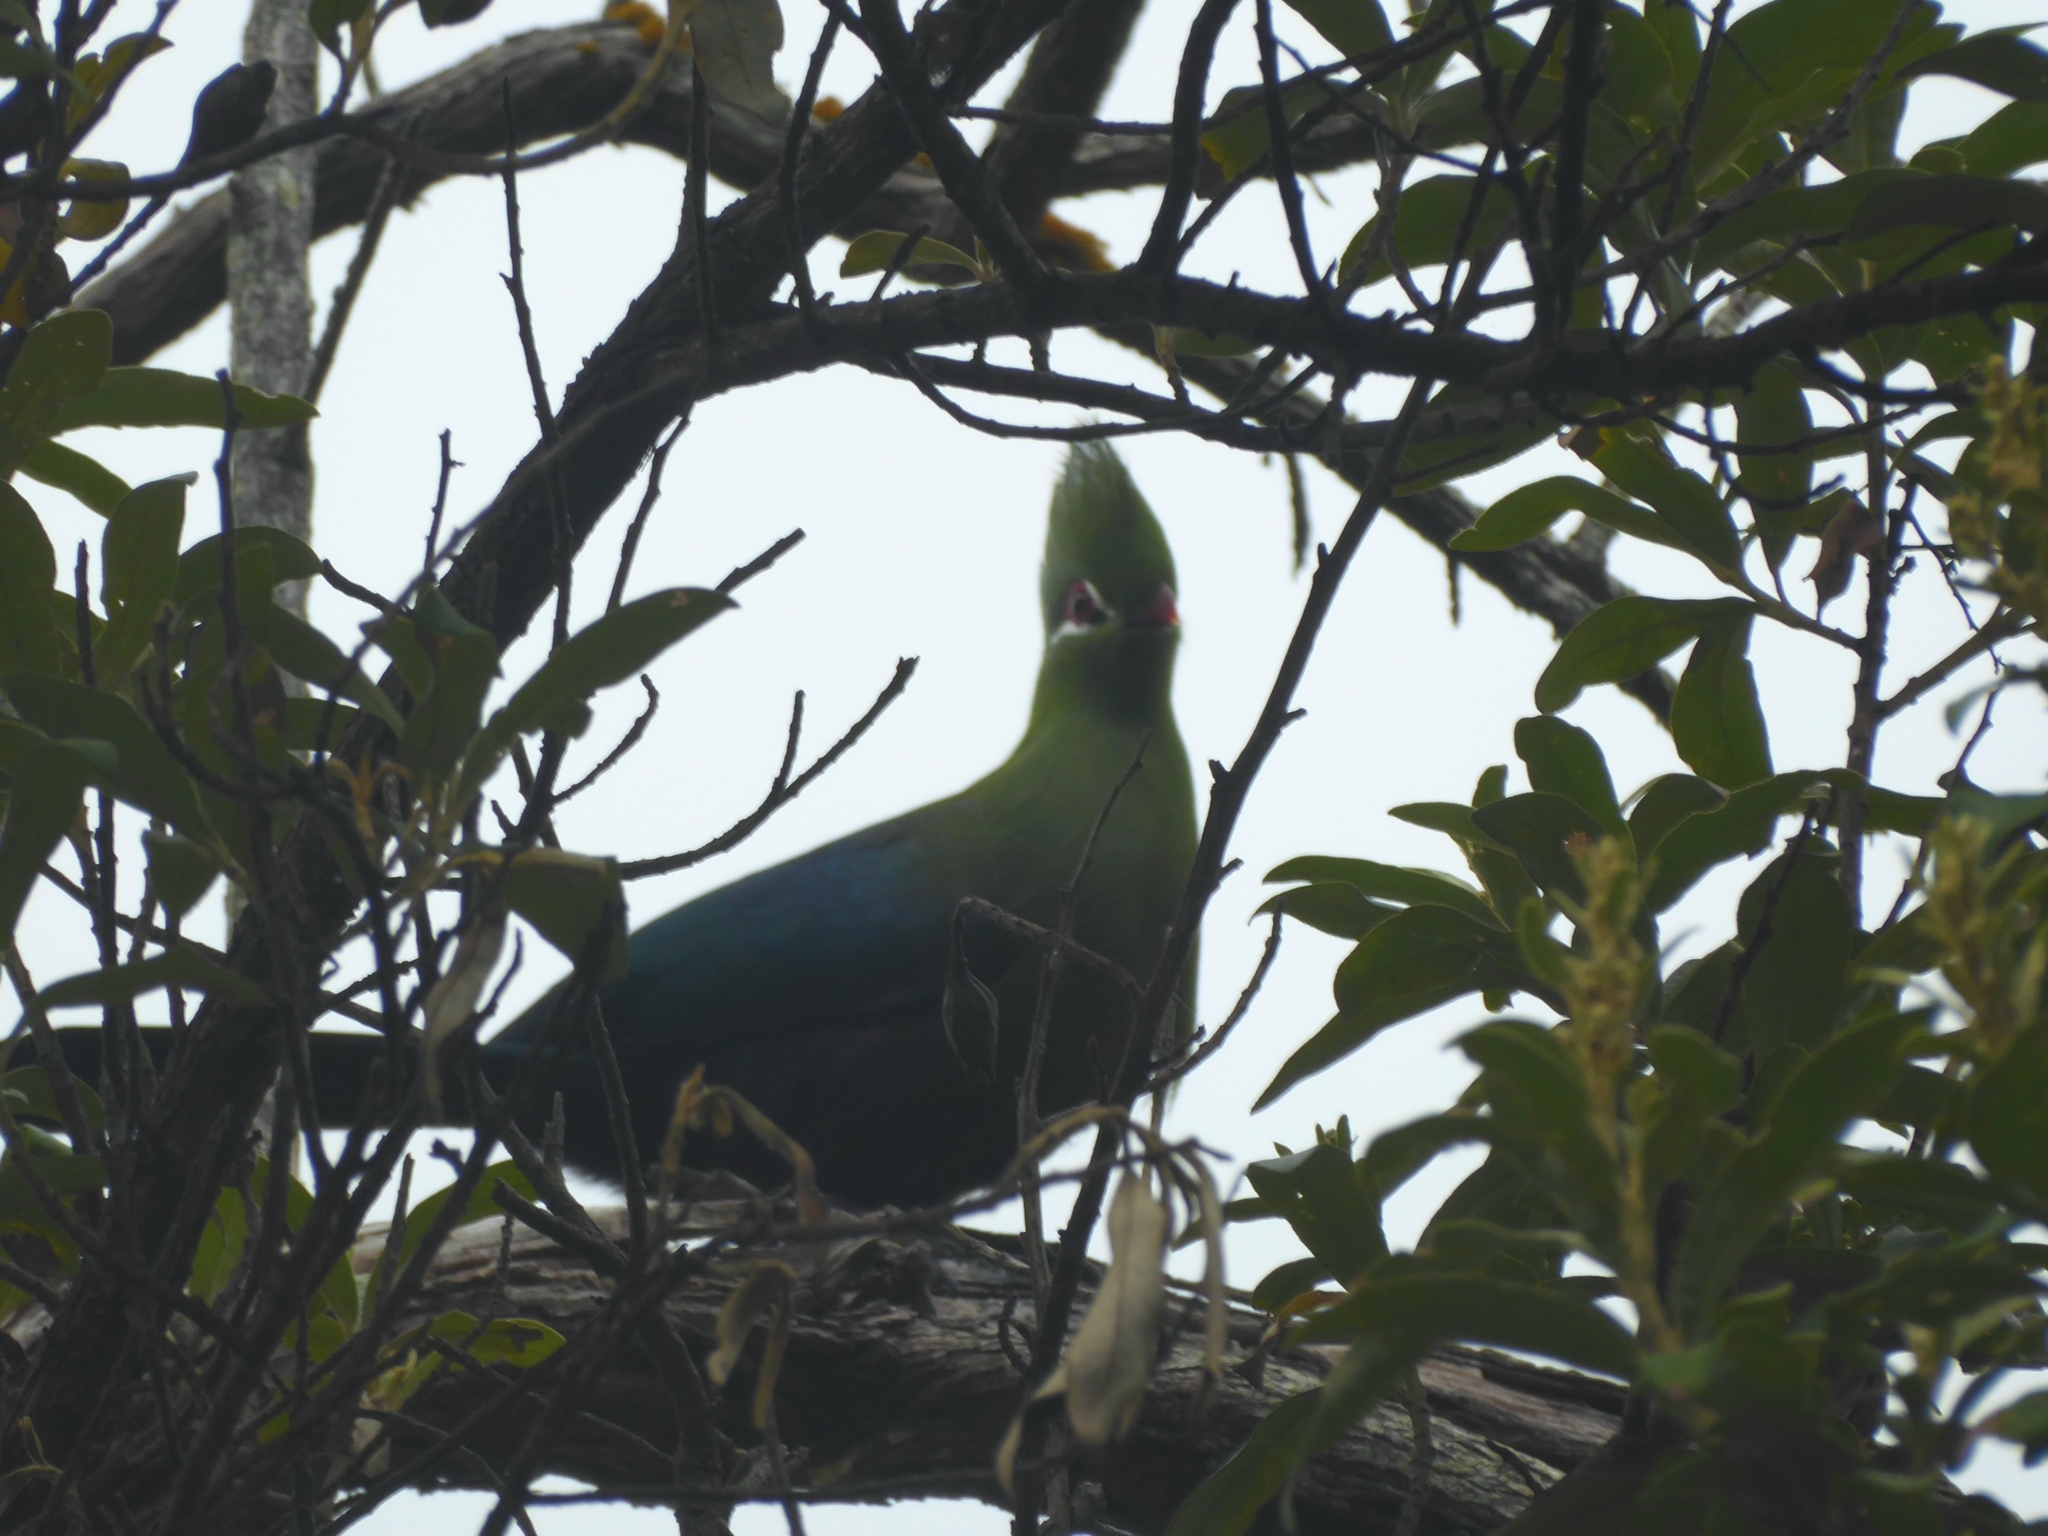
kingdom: Animalia
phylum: Chordata
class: Aves
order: Musophagiformes
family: Musophagidae
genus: Tauraco
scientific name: Tauraco corythaix
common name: Knysna turaco
